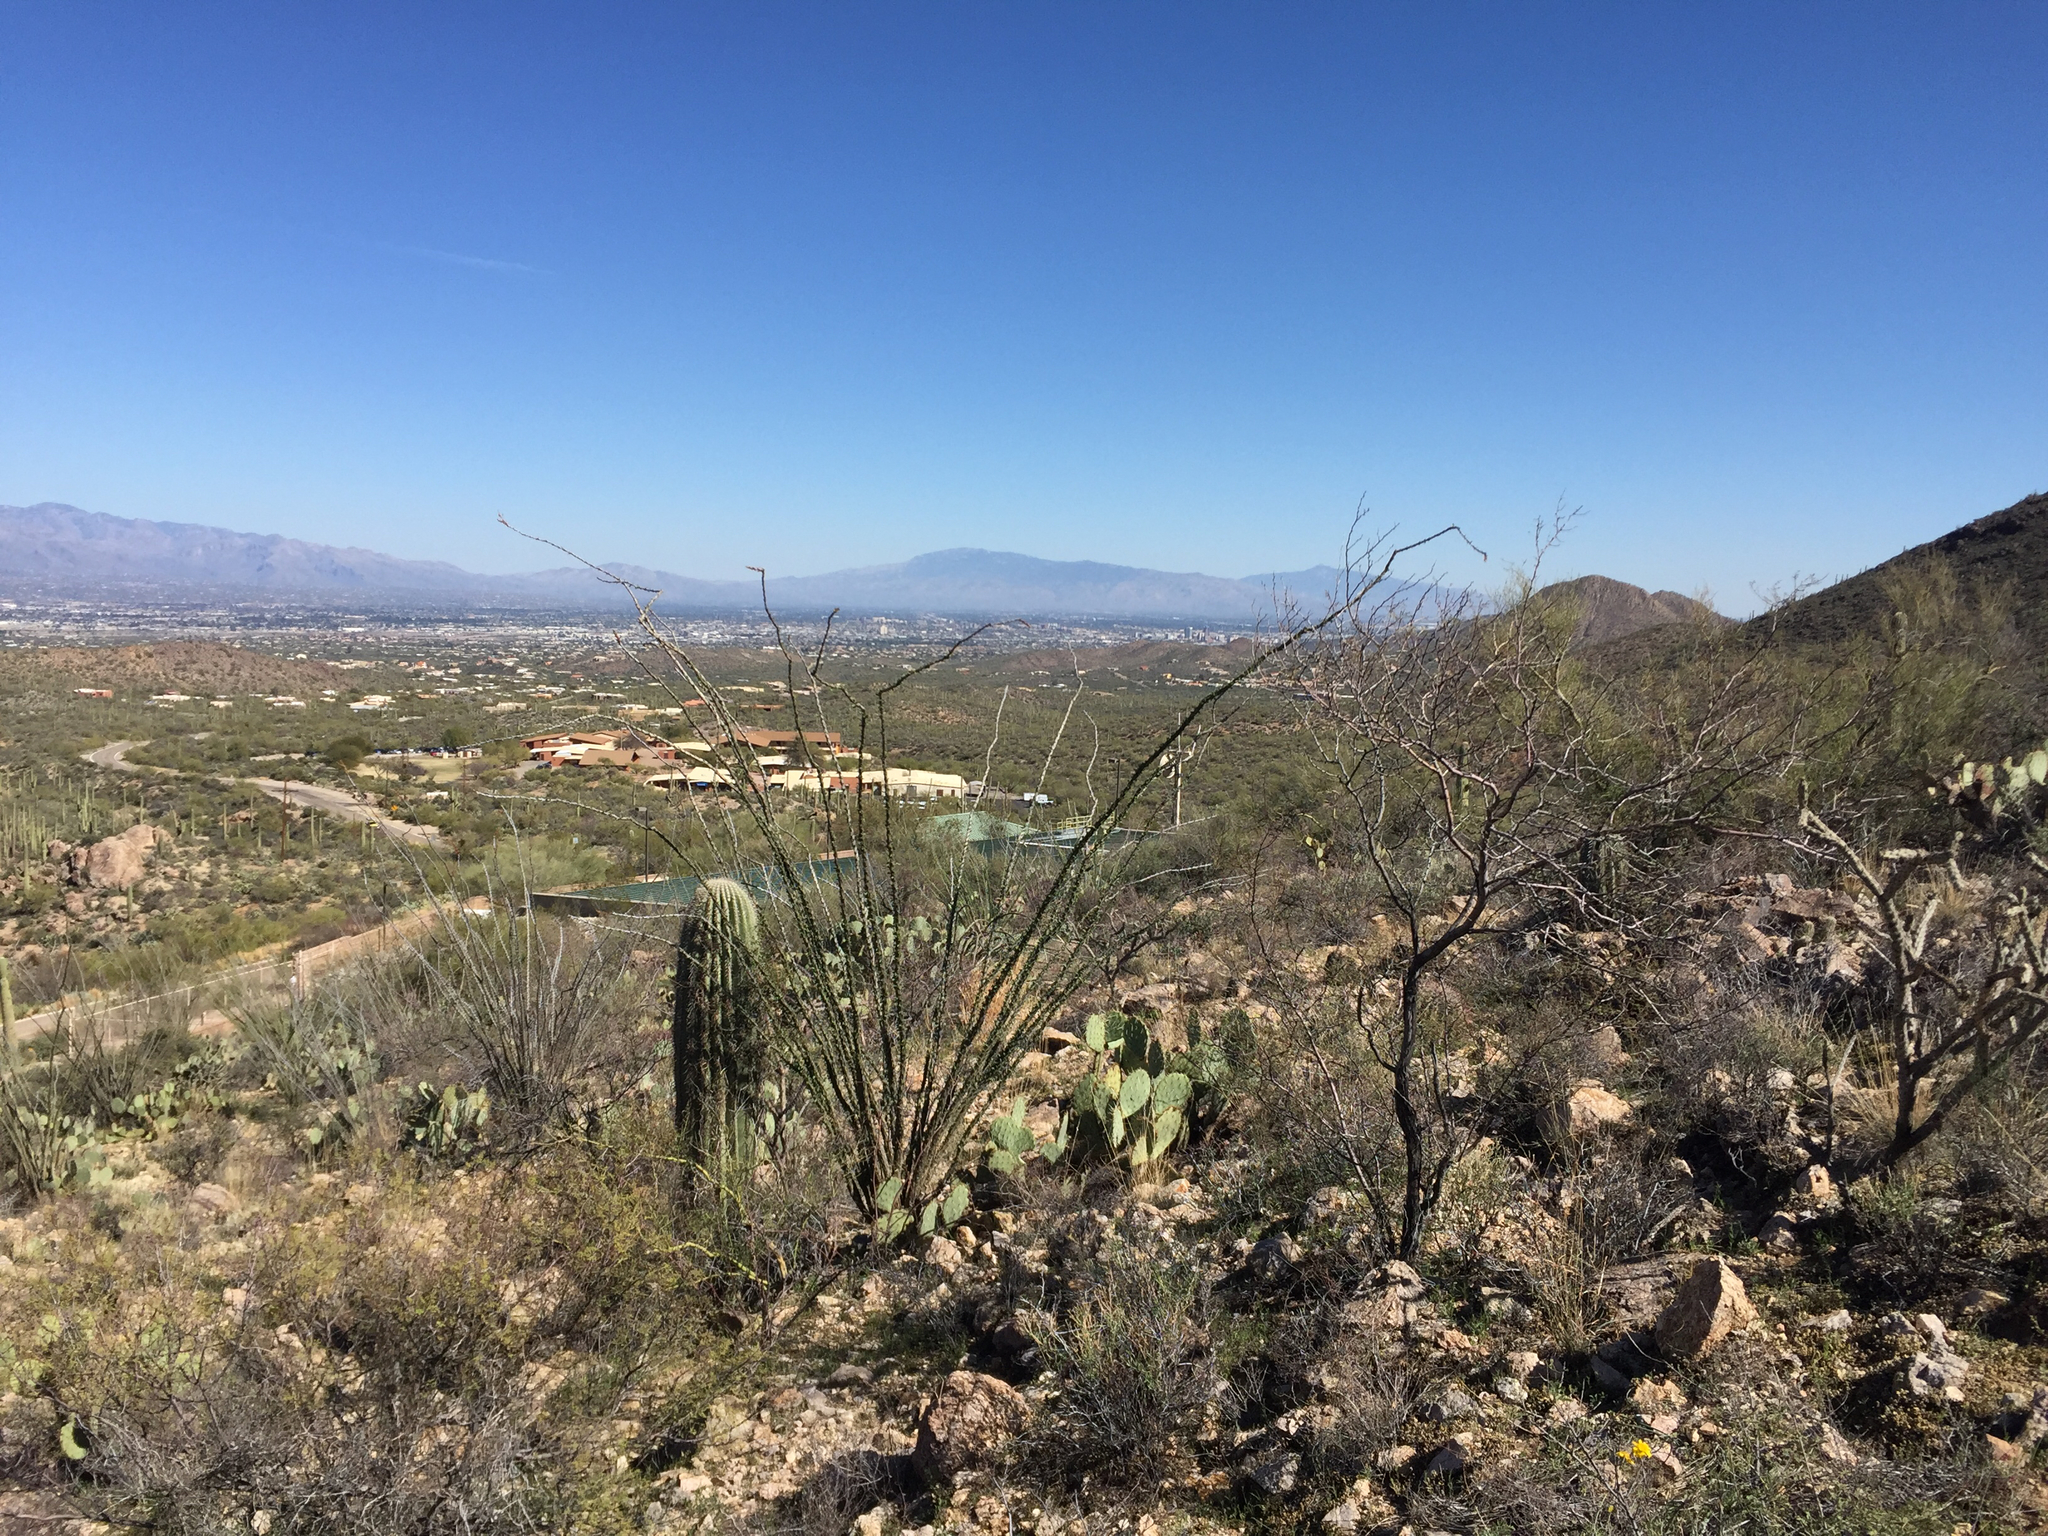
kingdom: Plantae
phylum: Tracheophyta
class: Magnoliopsida
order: Ericales
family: Fouquieriaceae
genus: Fouquieria
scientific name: Fouquieria splendens
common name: Vine-cactus
